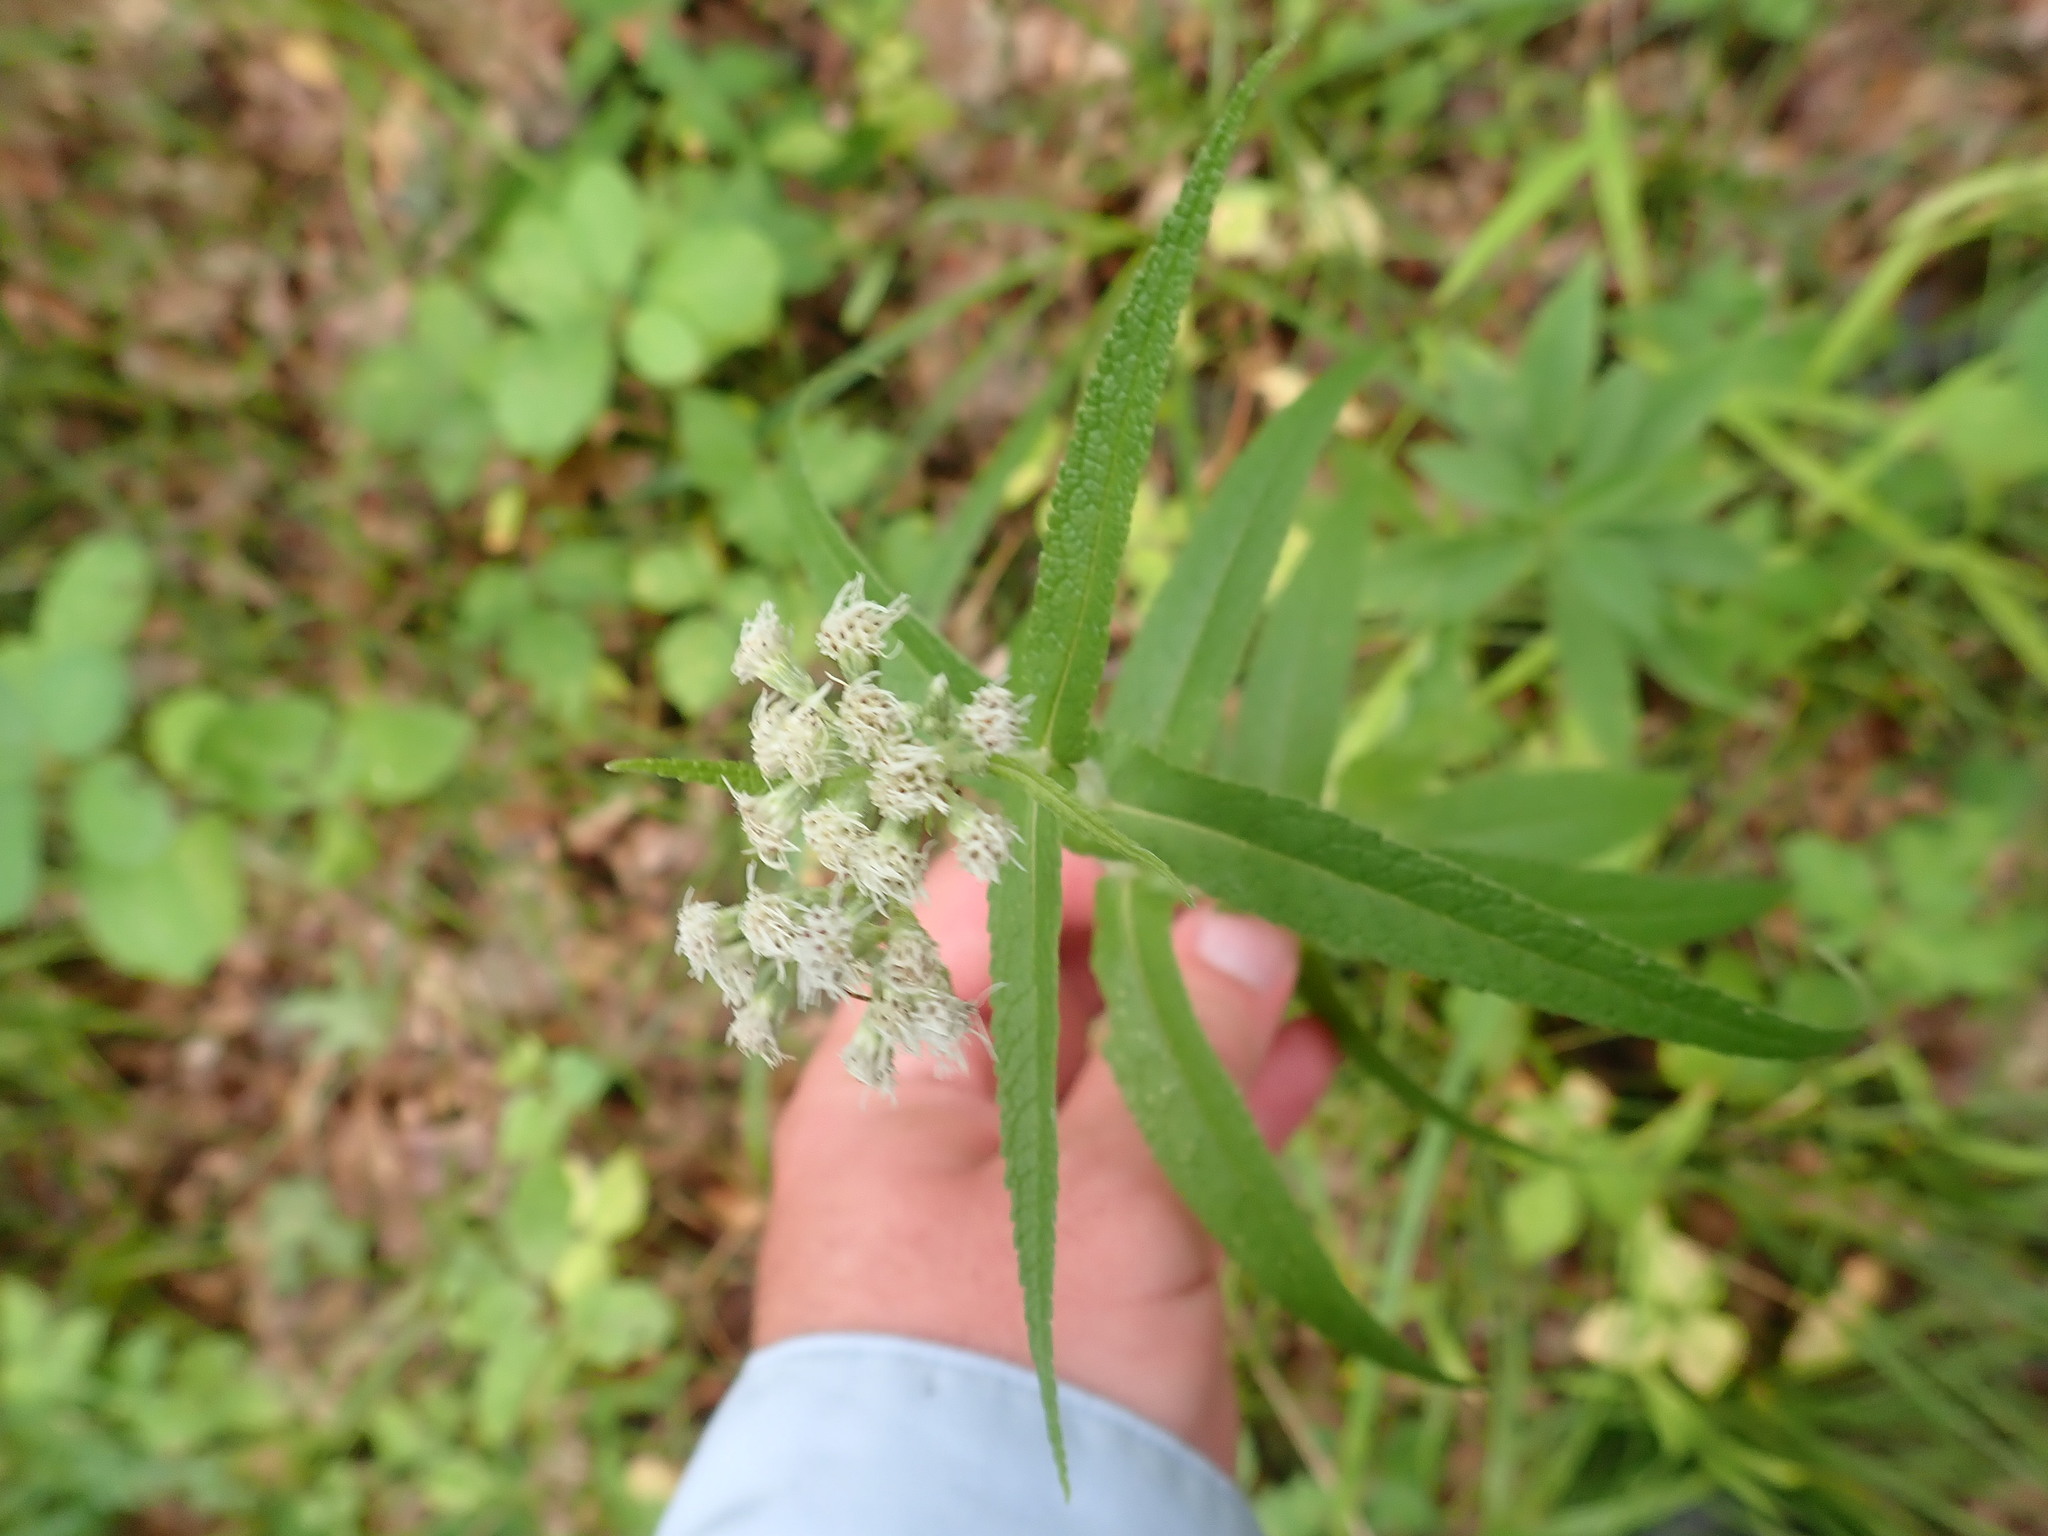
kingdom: Plantae
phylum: Tracheophyta
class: Magnoliopsida
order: Asterales
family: Asteraceae
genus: Eupatorium
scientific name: Eupatorium perfoliatum
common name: Boneset
